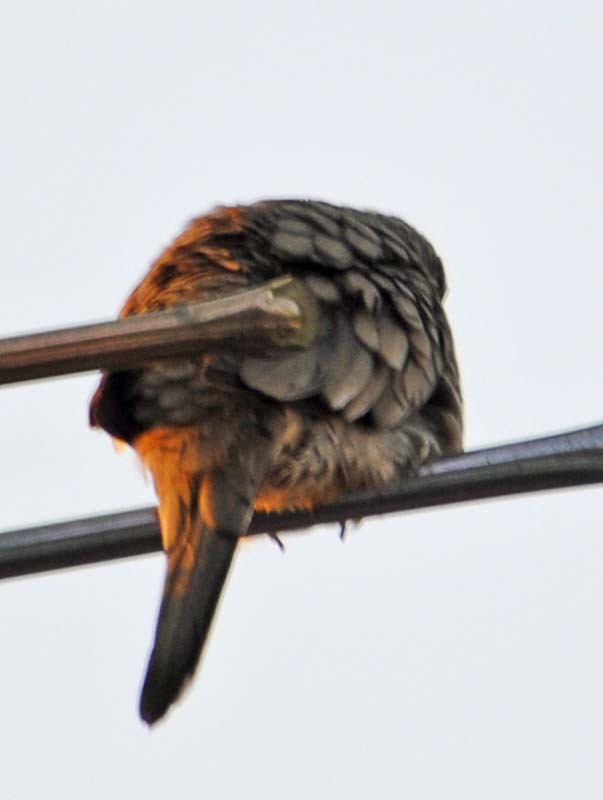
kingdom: Animalia
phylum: Chordata
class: Aves
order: Columbiformes
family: Columbidae
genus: Columbina
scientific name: Columbina inca
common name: Inca dove
